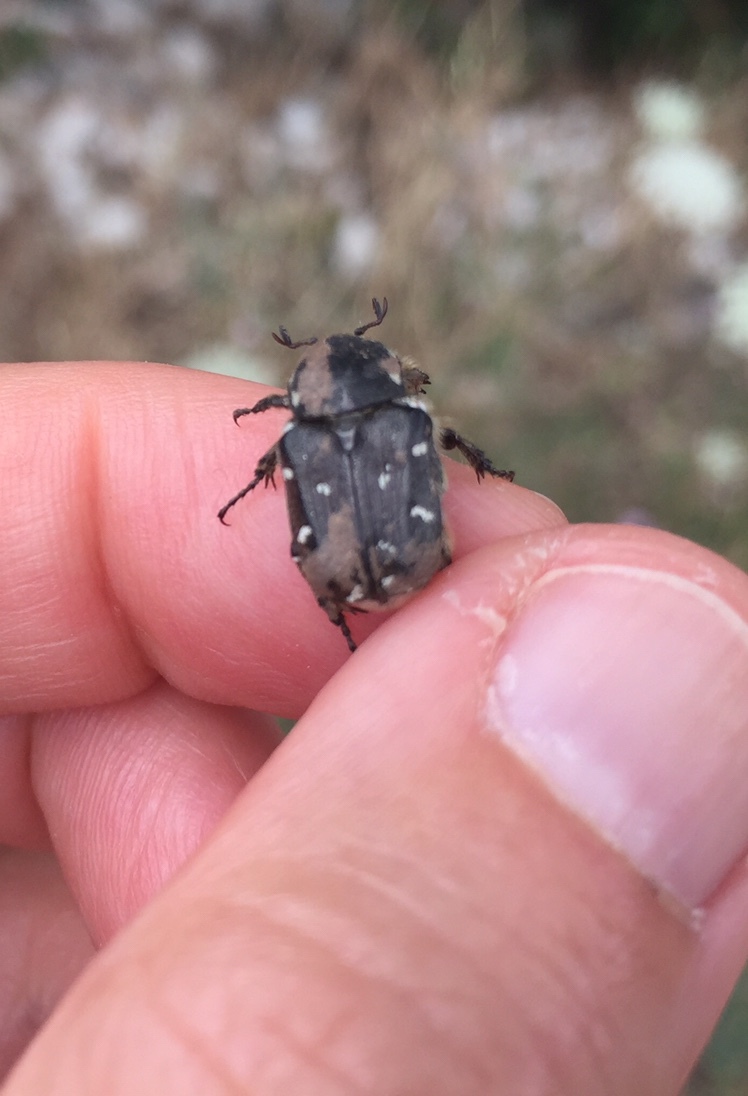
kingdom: Animalia
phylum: Arthropoda
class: Insecta
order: Coleoptera
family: Scarabaeidae
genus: Heterocnemis
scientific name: Heterocnemis graeca
